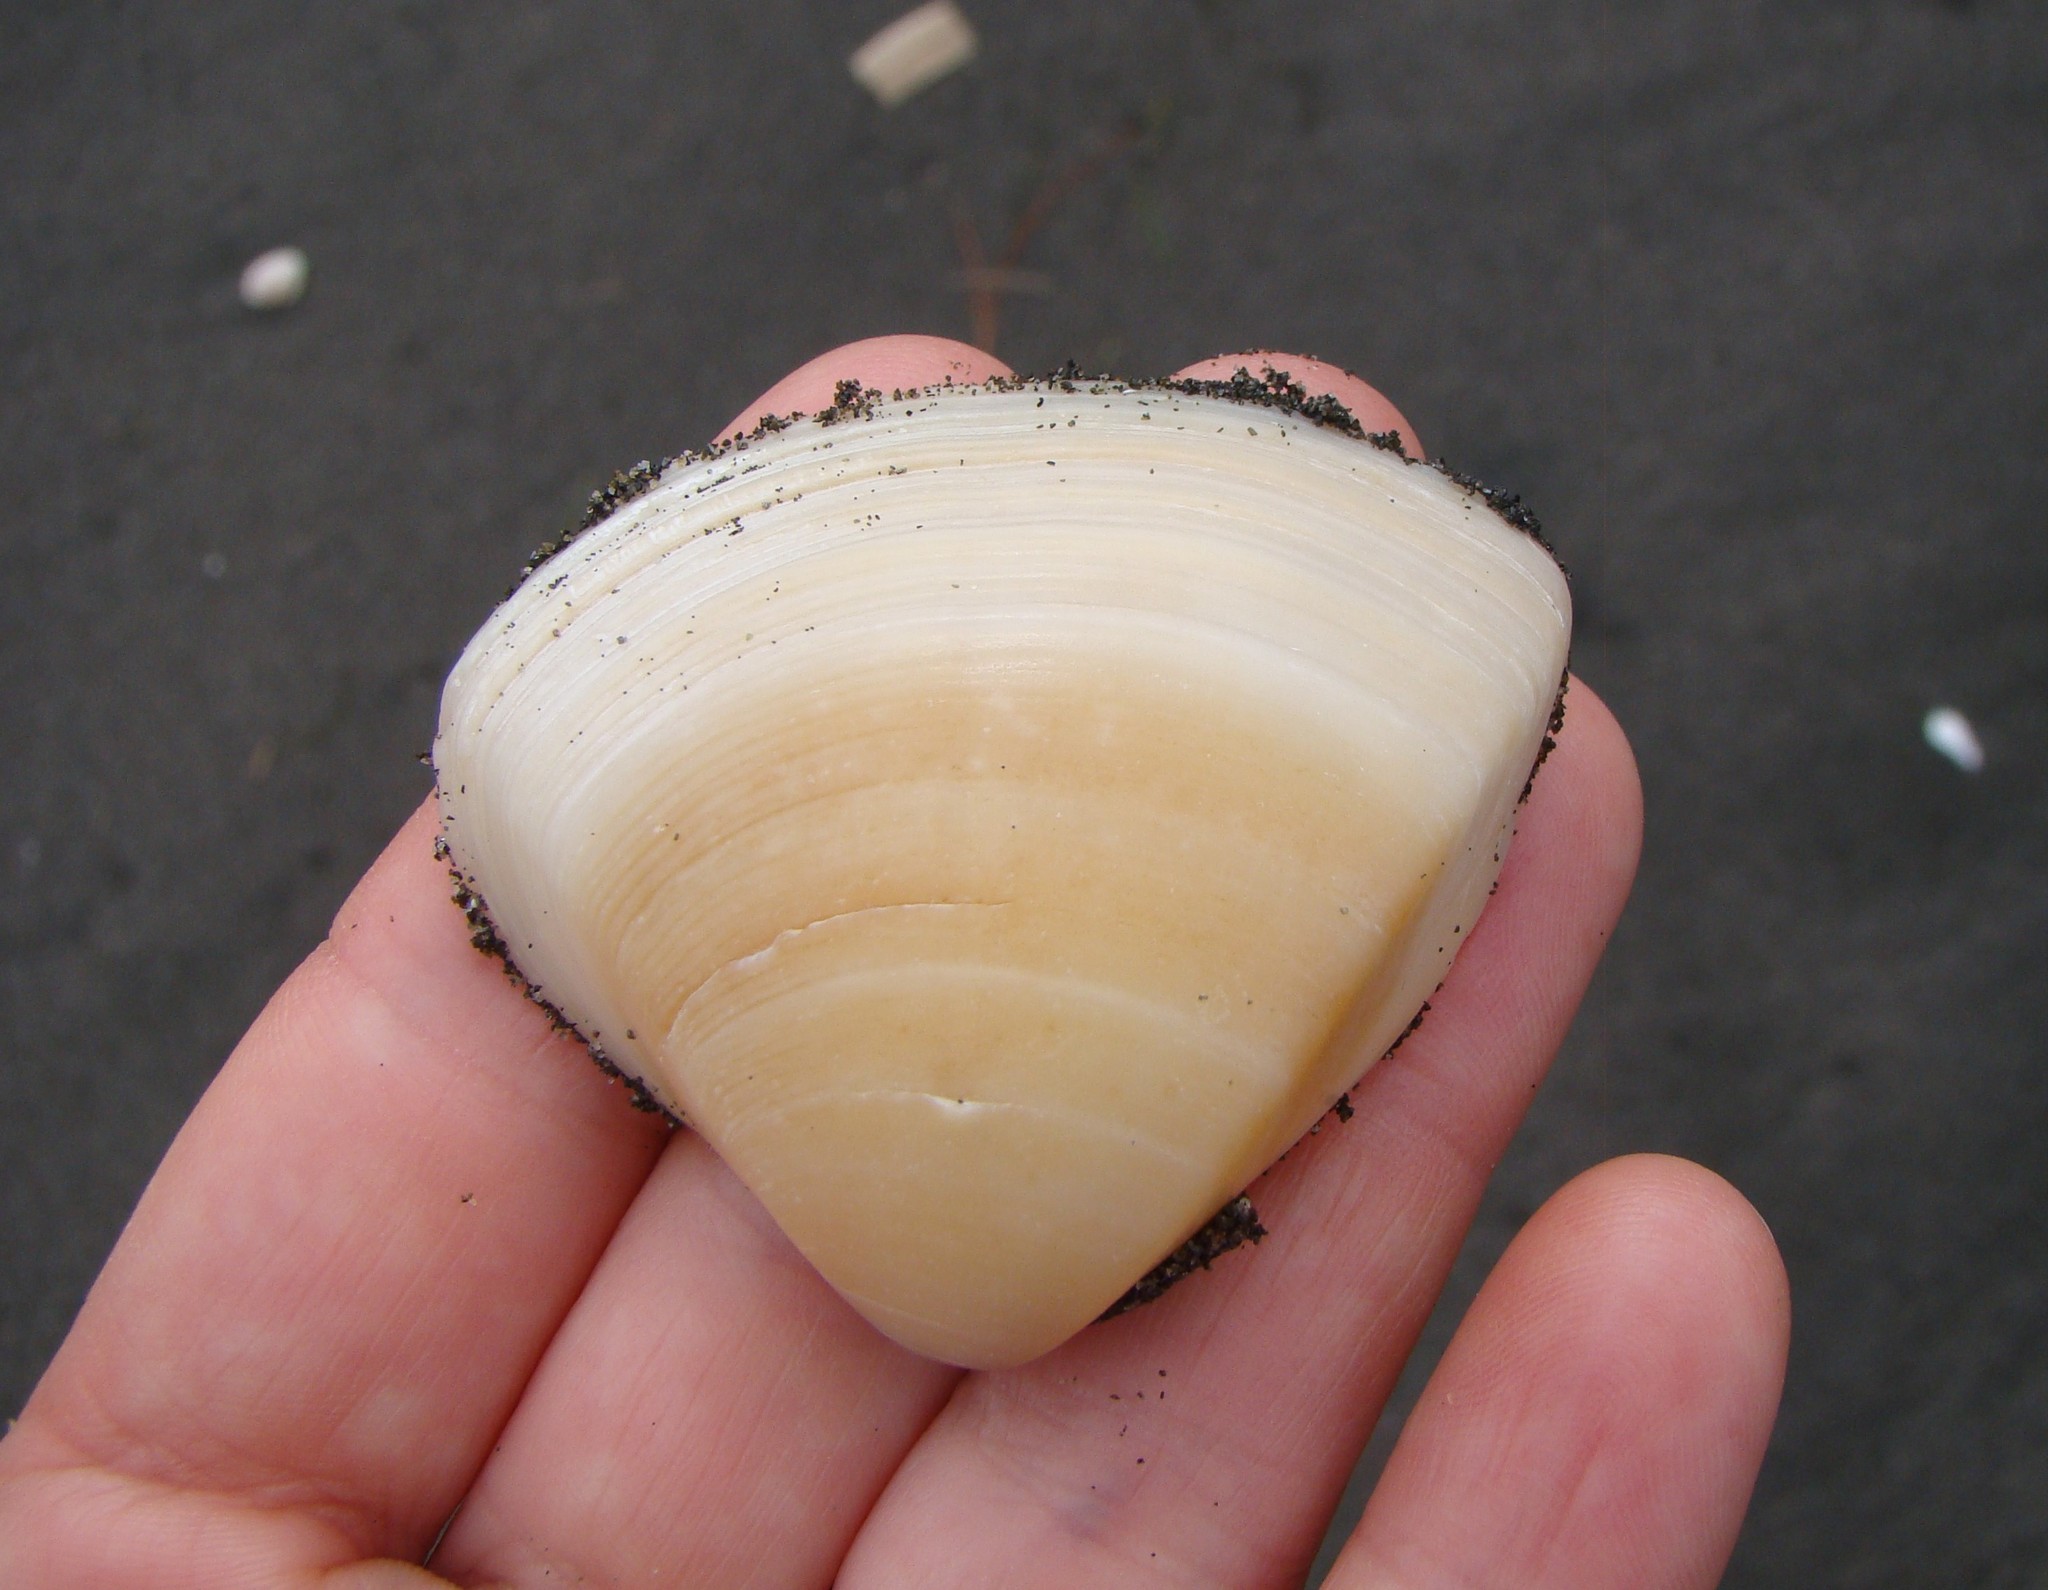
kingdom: Animalia
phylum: Mollusca
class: Bivalvia
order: Venerida
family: Mactridae
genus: Crassula
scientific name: Crassula aequilatera
